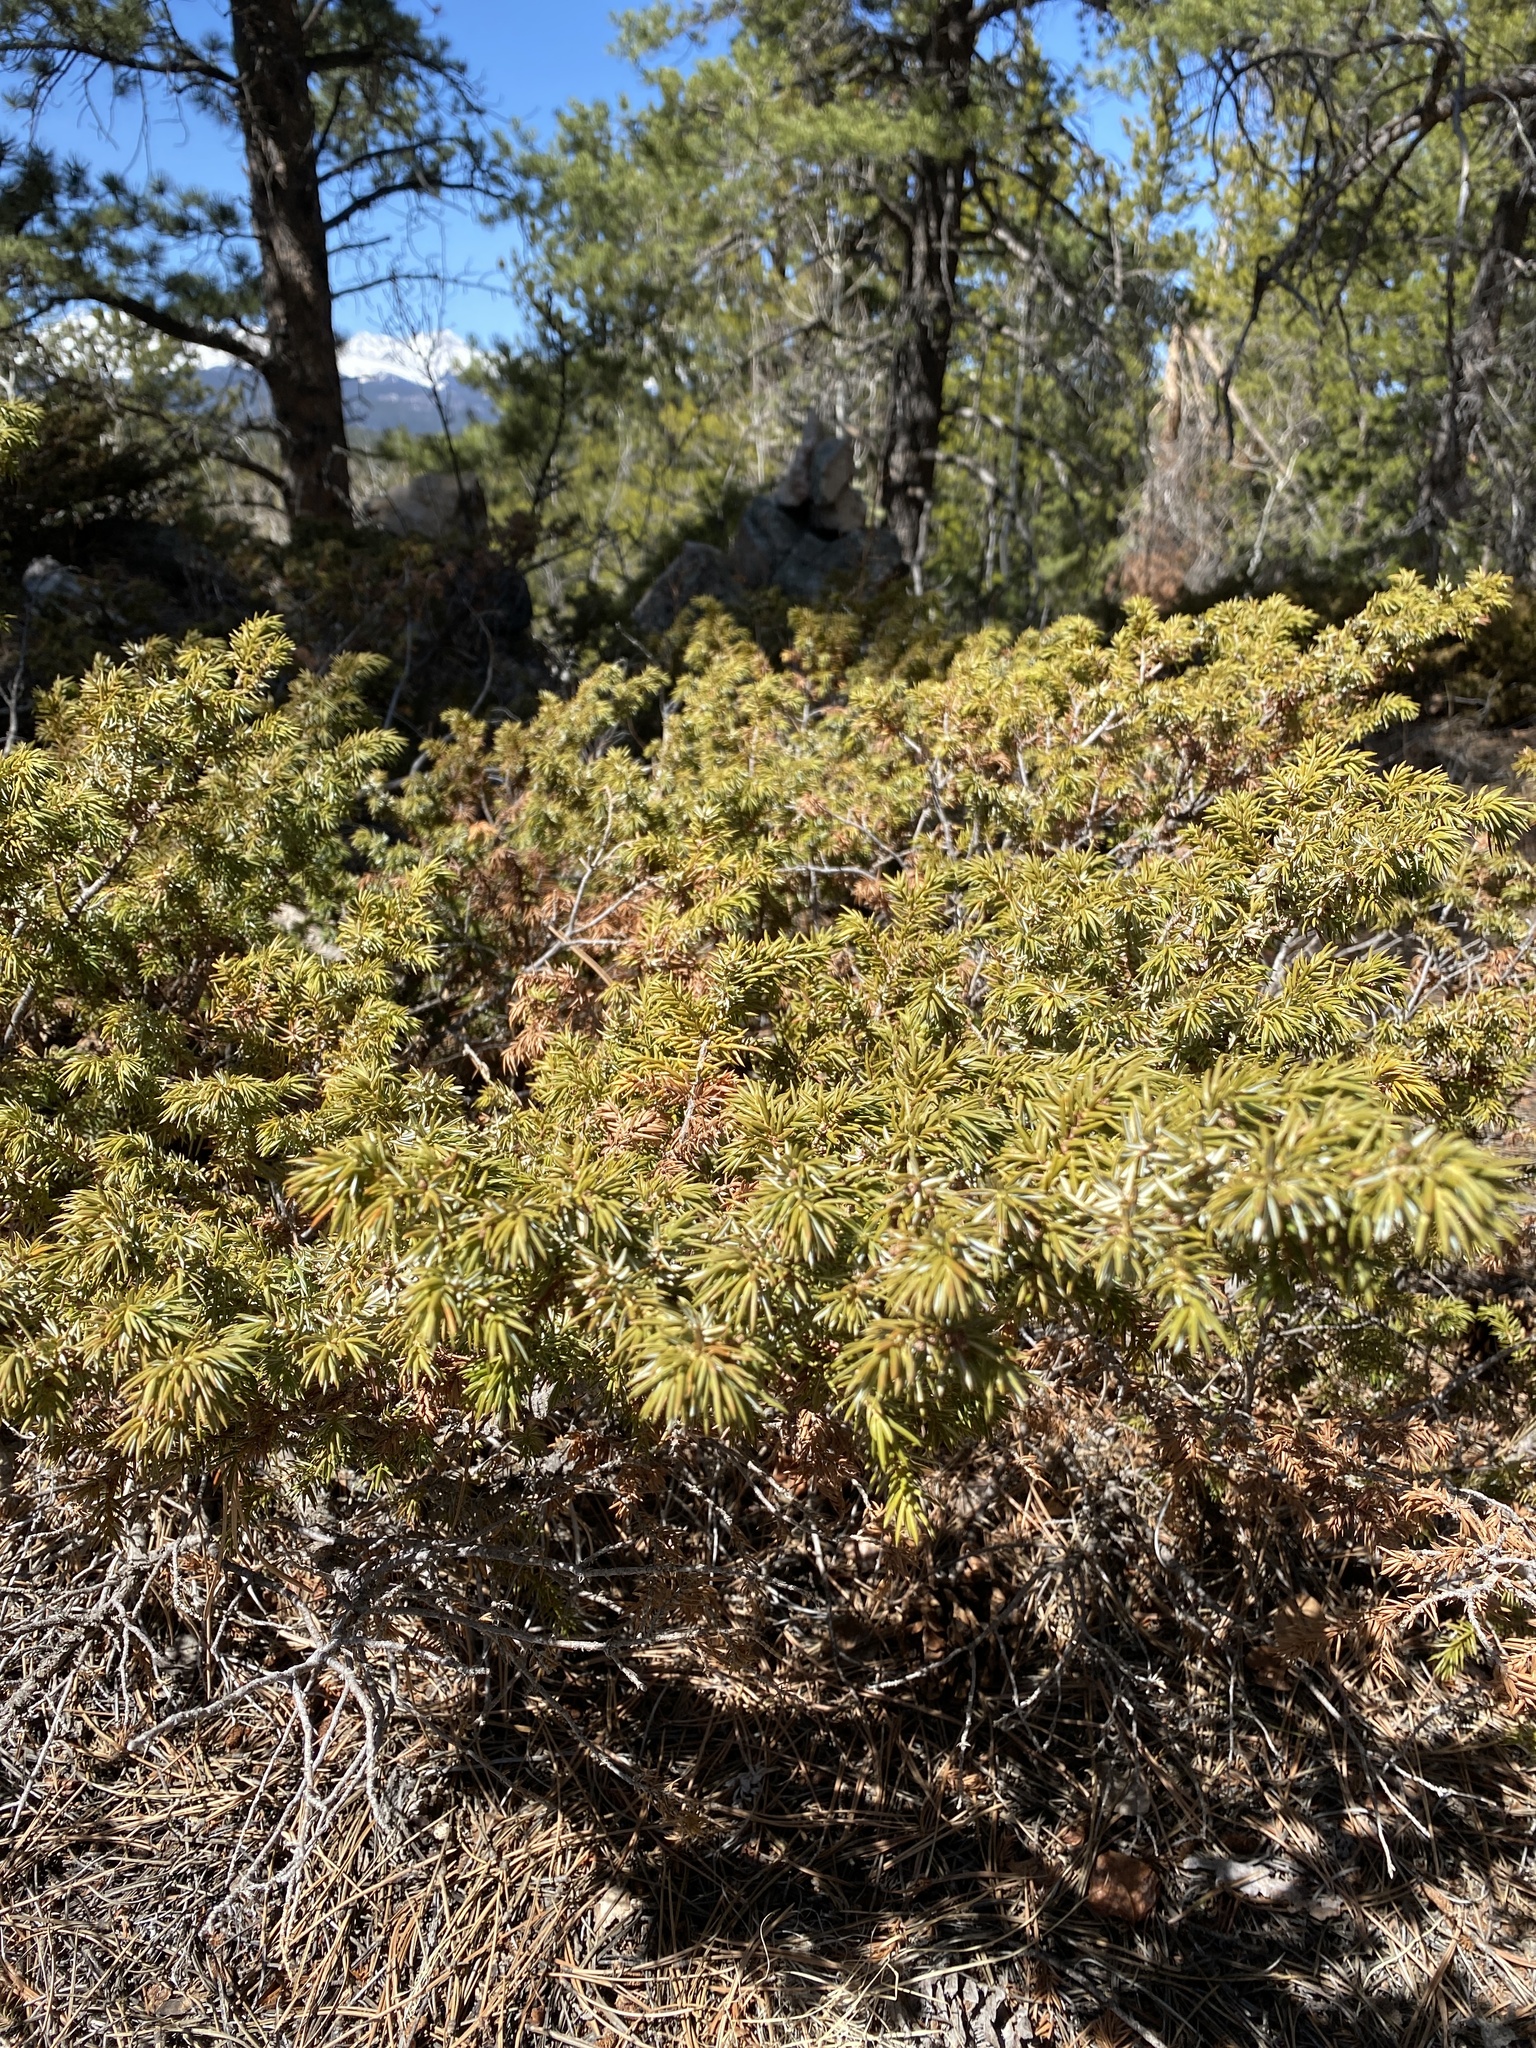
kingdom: Plantae
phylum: Tracheophyta
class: Pinopsida
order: Pinales
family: Cupressaceae
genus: Juniperus
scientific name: Juniperus communis
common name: Common juniper
